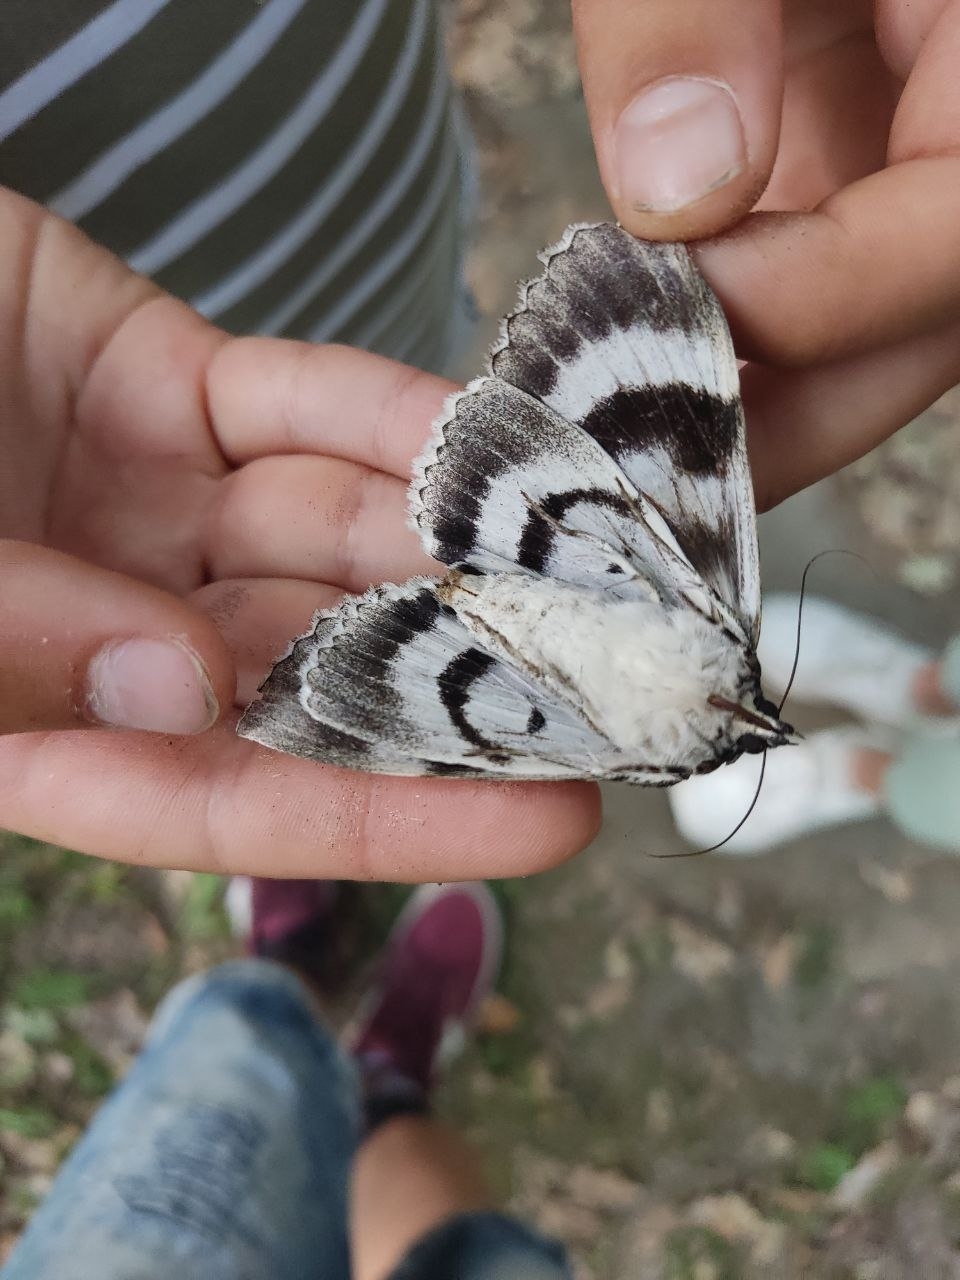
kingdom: Animalia
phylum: Arthropoda
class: Insecta
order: Lepidoptera
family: Erebidae
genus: Catocala
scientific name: Catocala fraxini
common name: Clifden nonpareil
